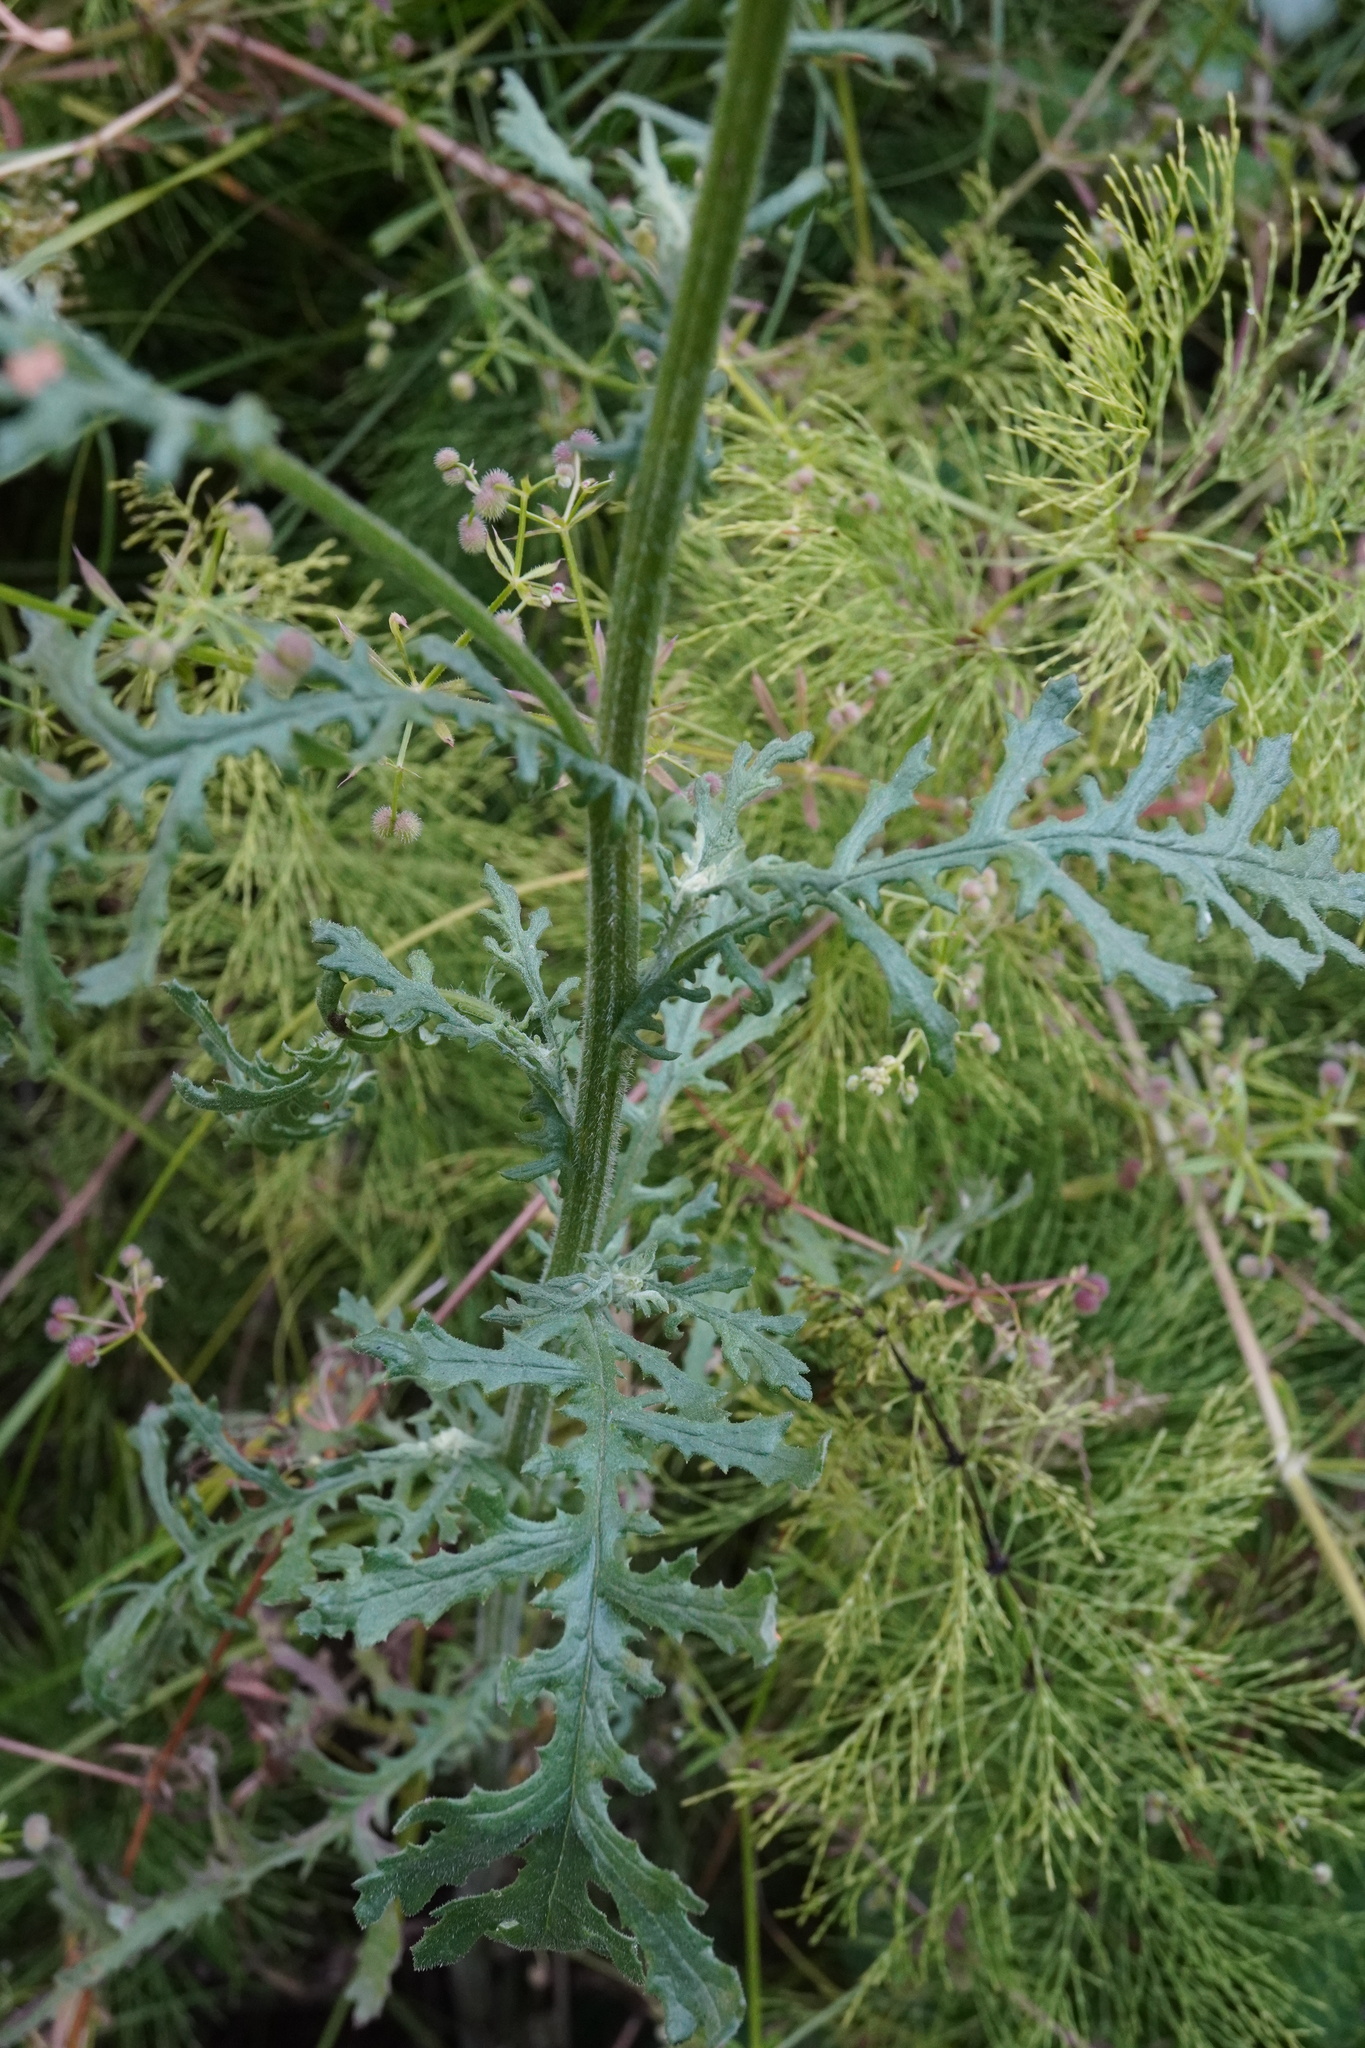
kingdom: Plantae
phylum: Tracheophyta
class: Magnoliopsida
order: Asterales
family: Asteraceae
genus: Senecio
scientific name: Senecio sylvaticus
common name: Woodland ragwort
